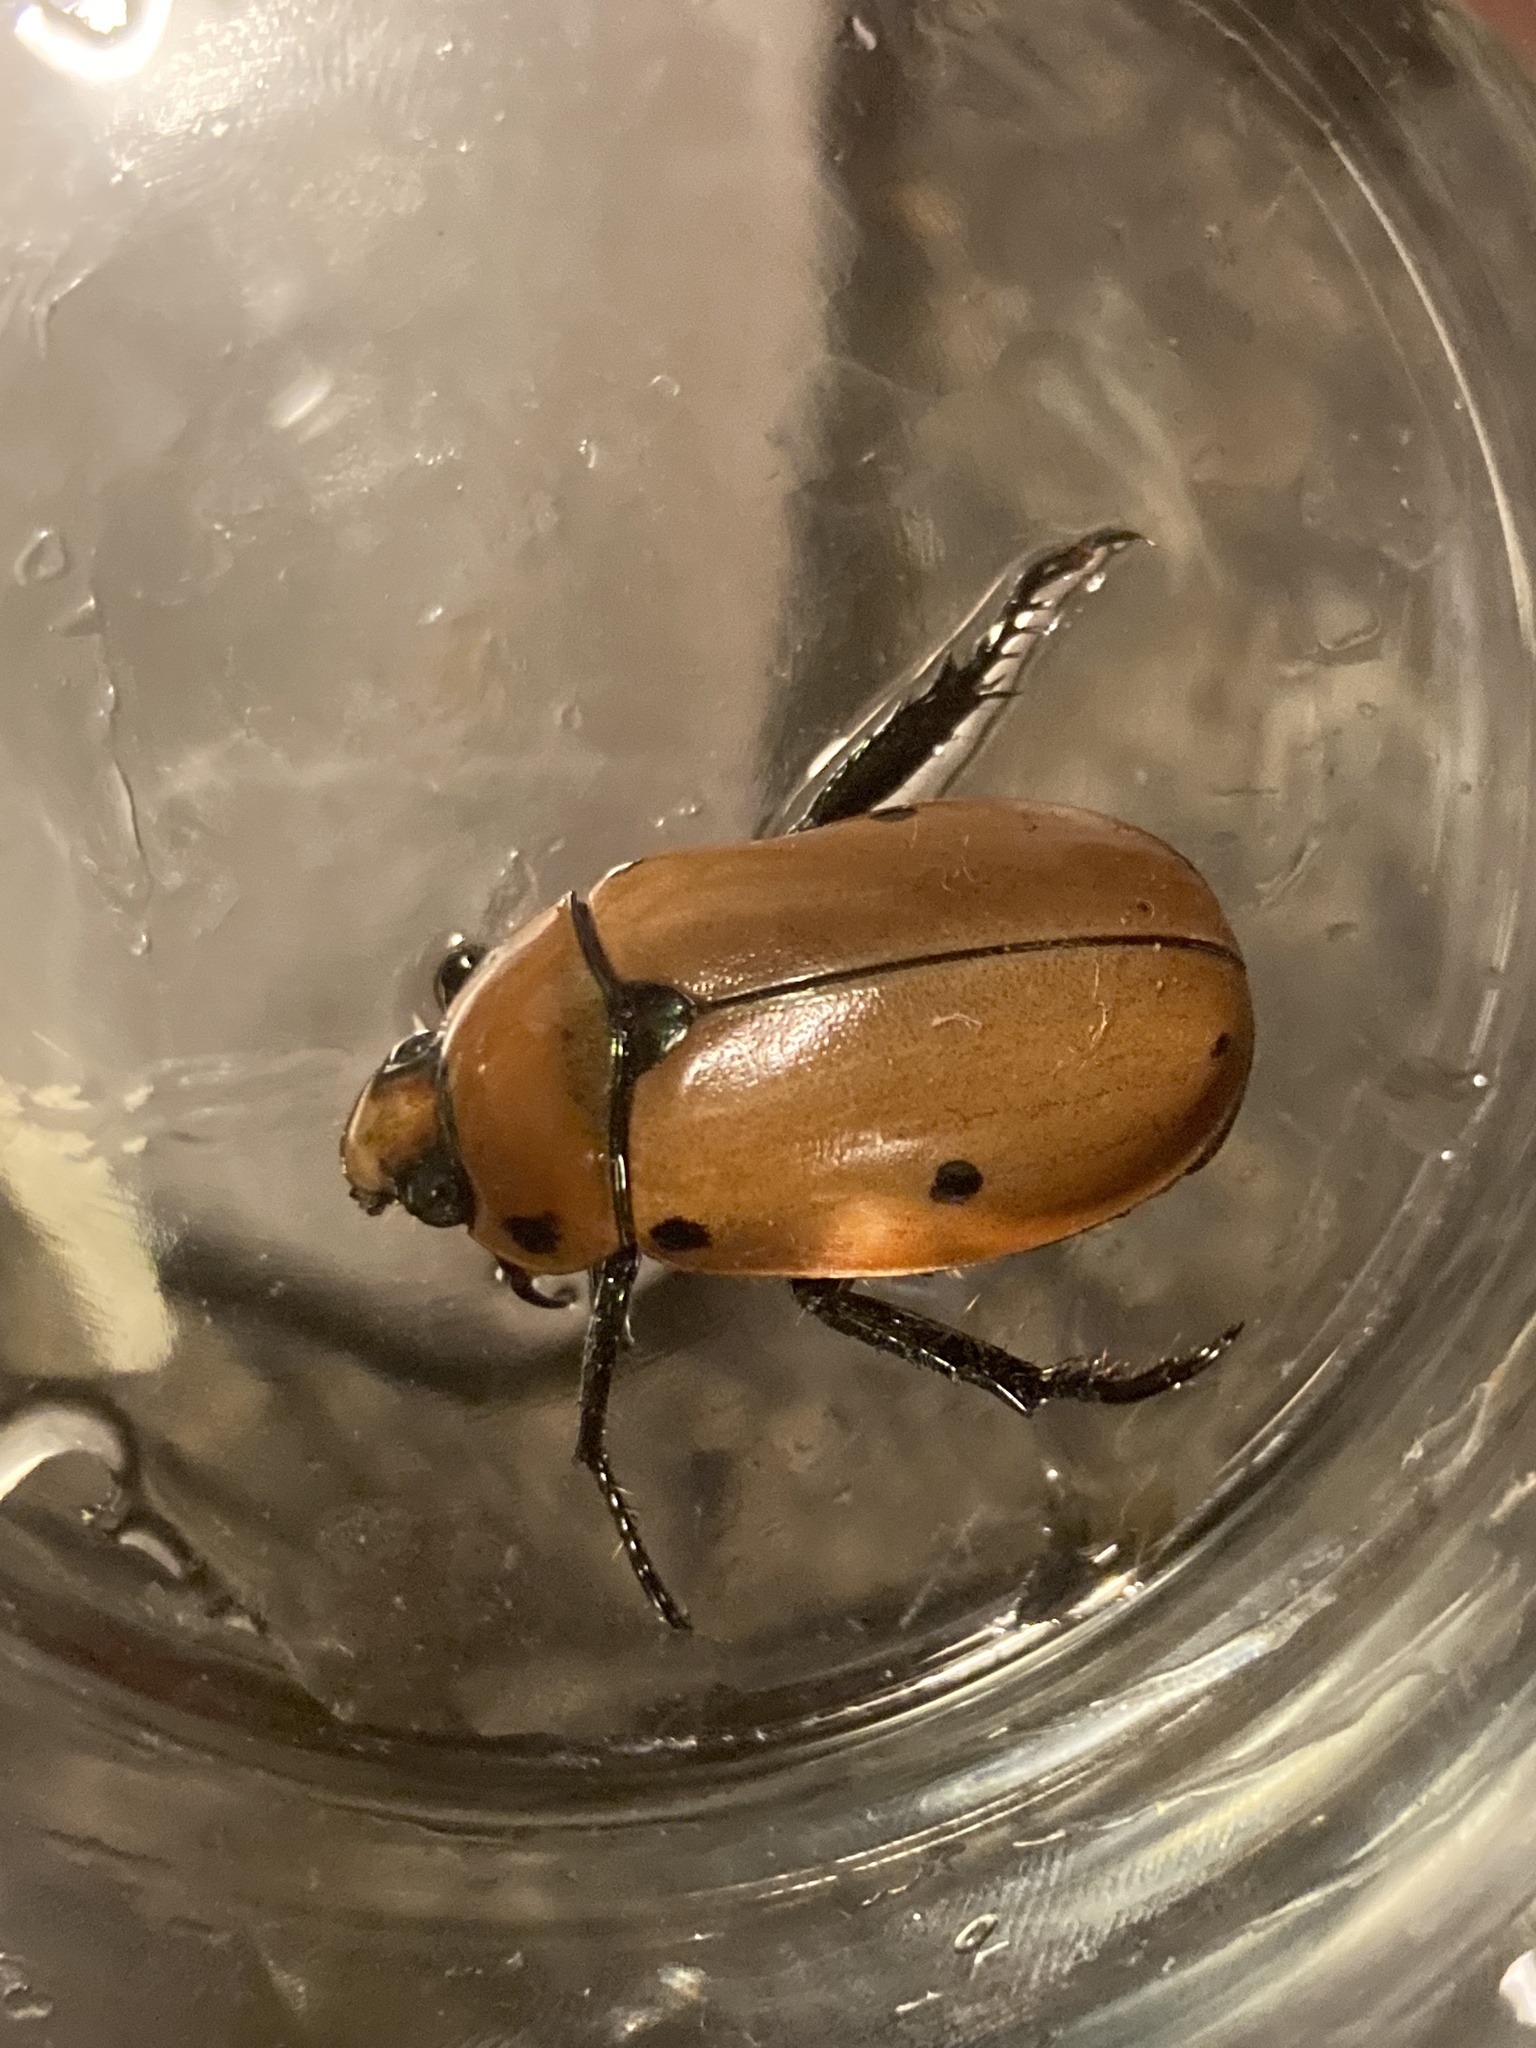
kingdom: Animalia
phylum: Arthropoda
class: Insecta
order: Coleoptera
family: Scarabaeidae
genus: Pelidnota
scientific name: Pelidnota punctata
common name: Grapevine beetle
